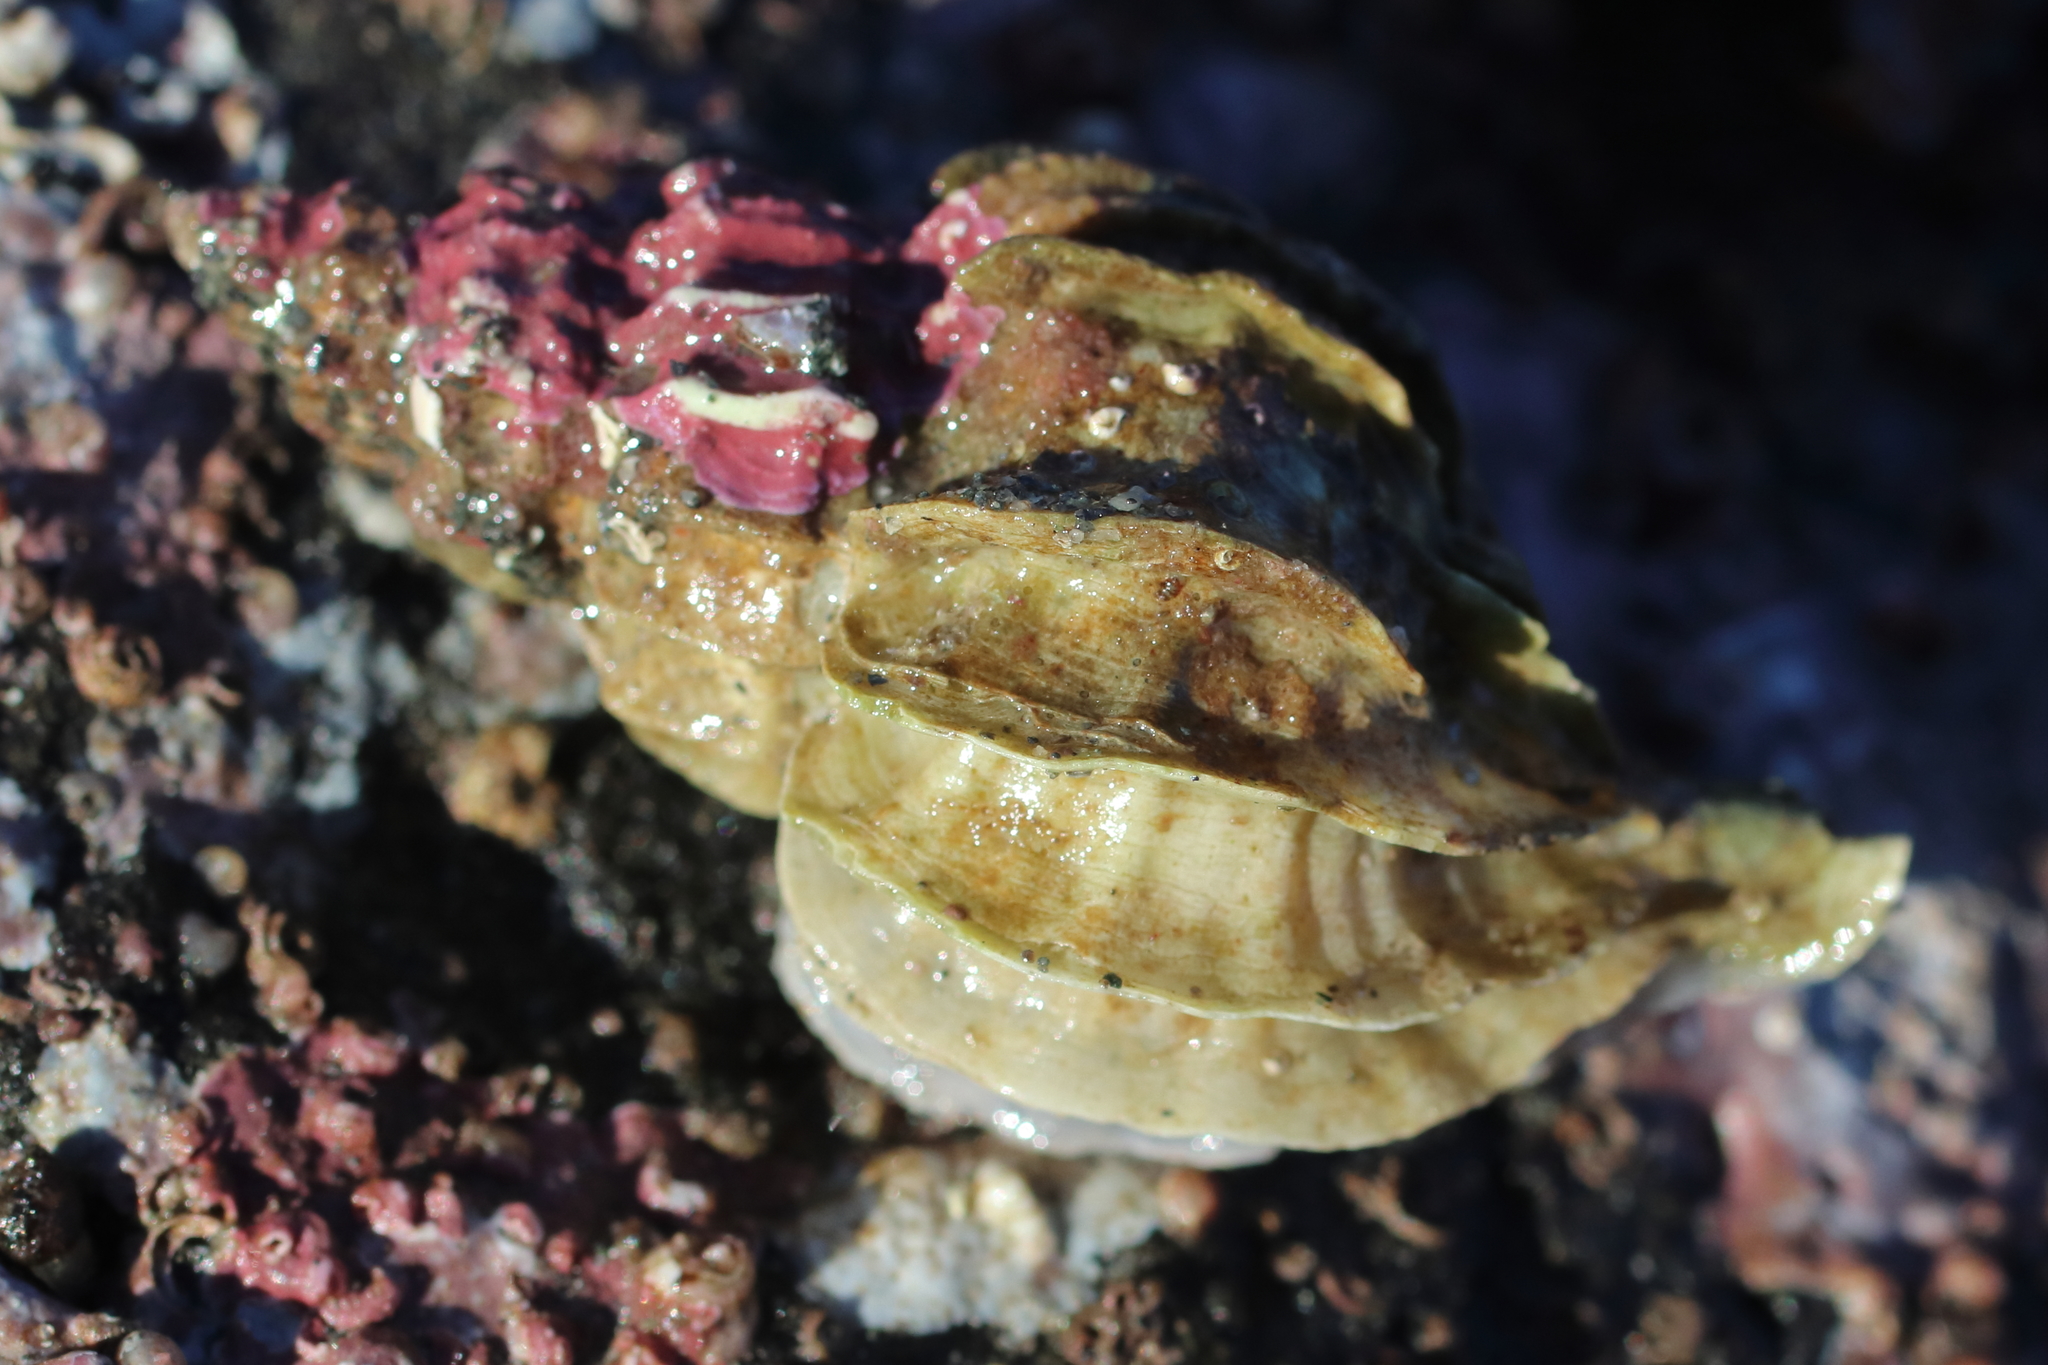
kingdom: Animalia
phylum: Mollusca
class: Gastropoda
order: Neogastropoda
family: Muricidae
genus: Scabrotrophon
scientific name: Scabrotrophon stuarti
